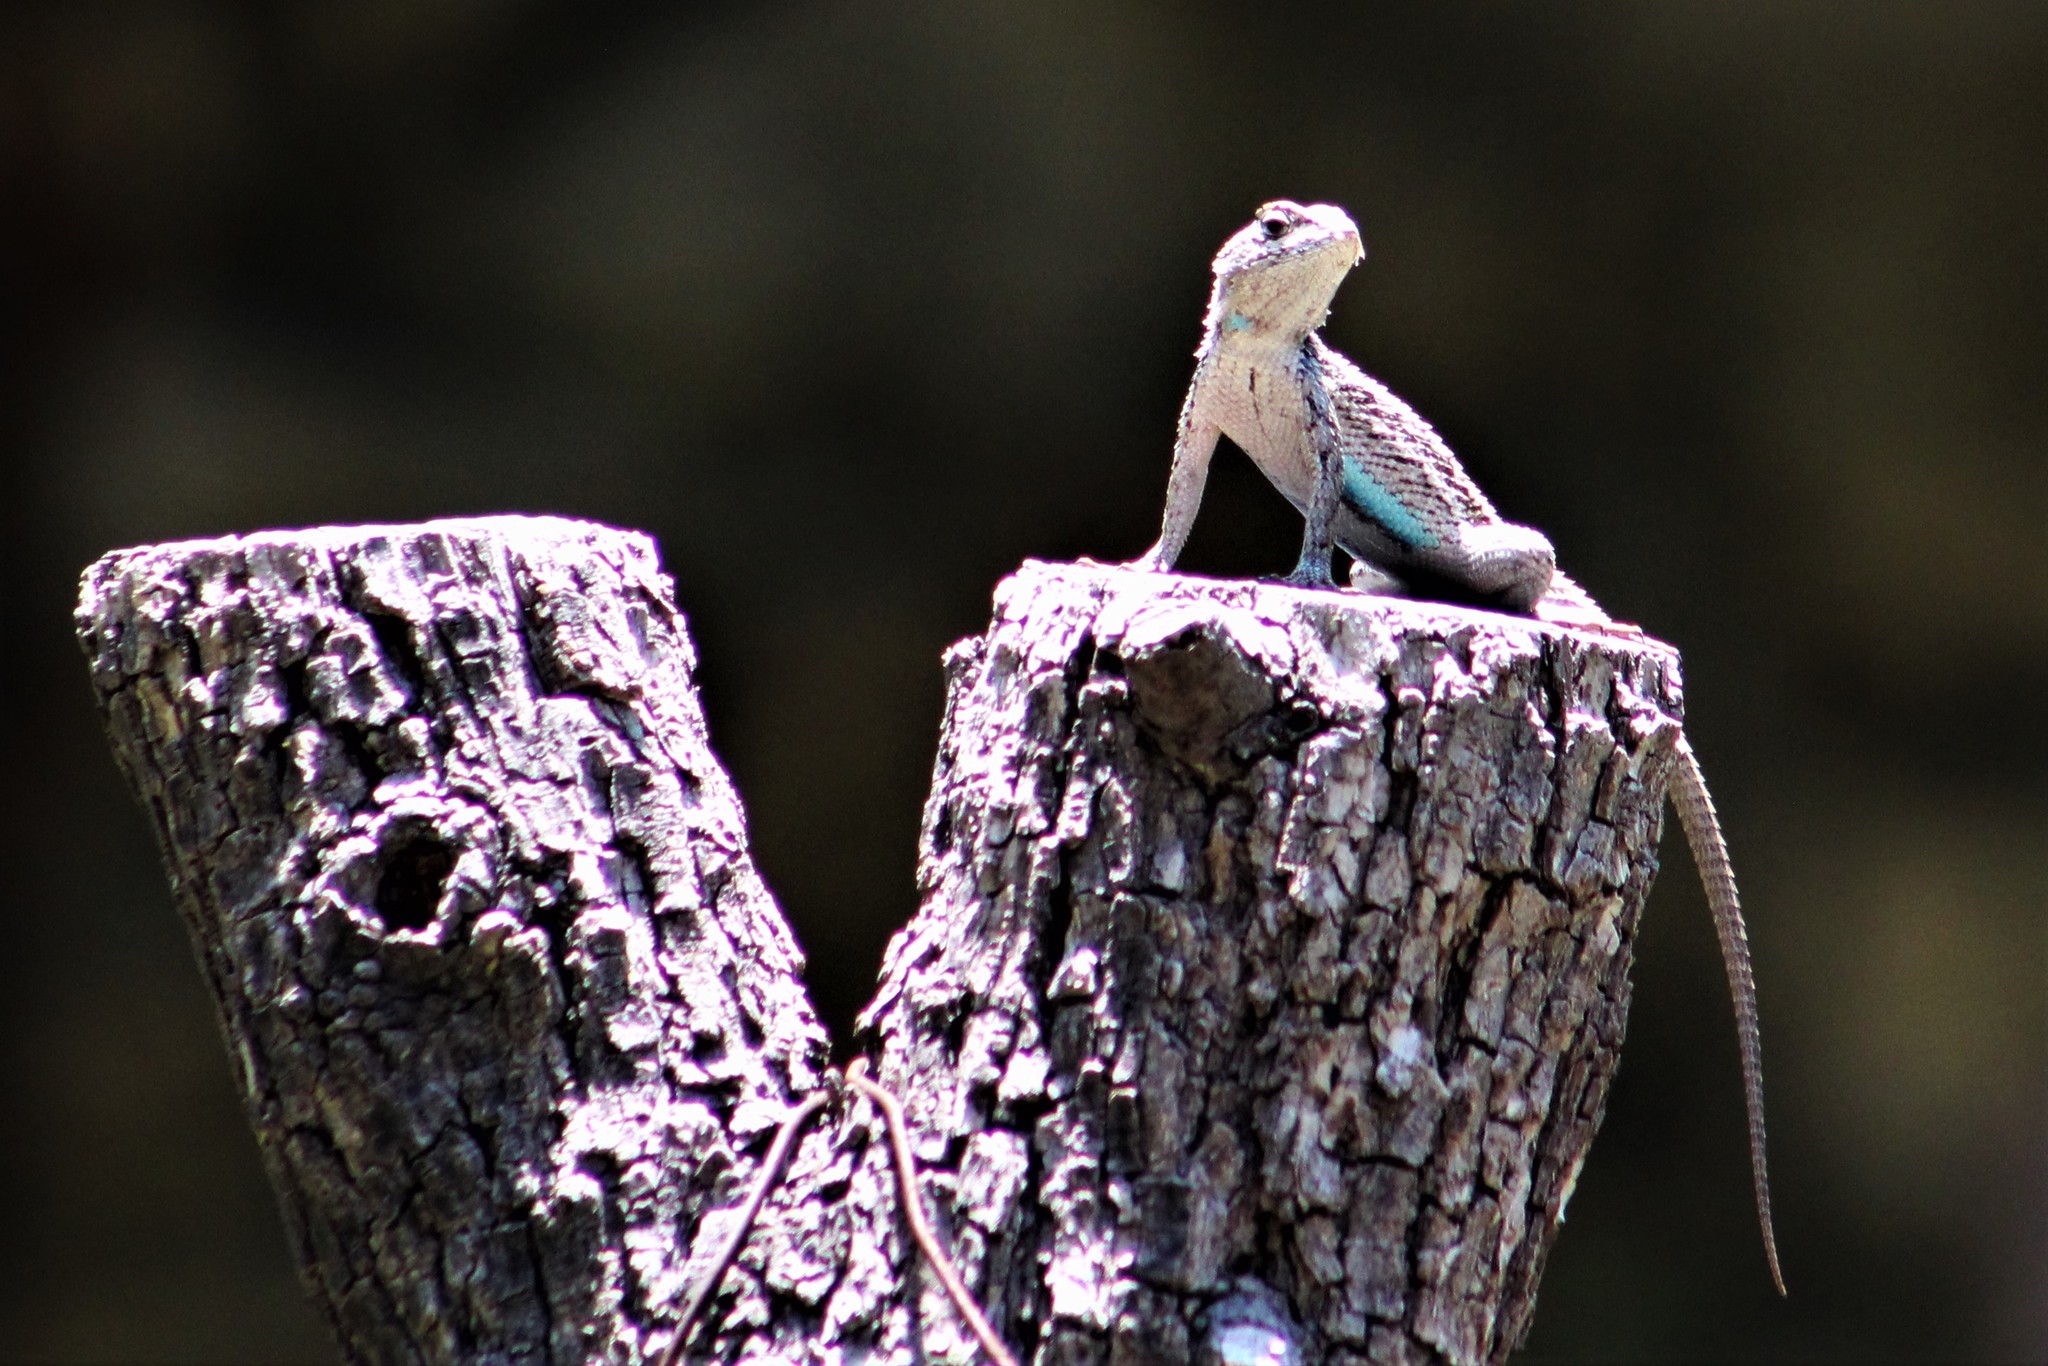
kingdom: Animalia
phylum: Chordata
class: Squamata
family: Phrynosomatidae
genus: Sceloporus
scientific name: Sceloporus olivaceus
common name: Texas spiny lizard
